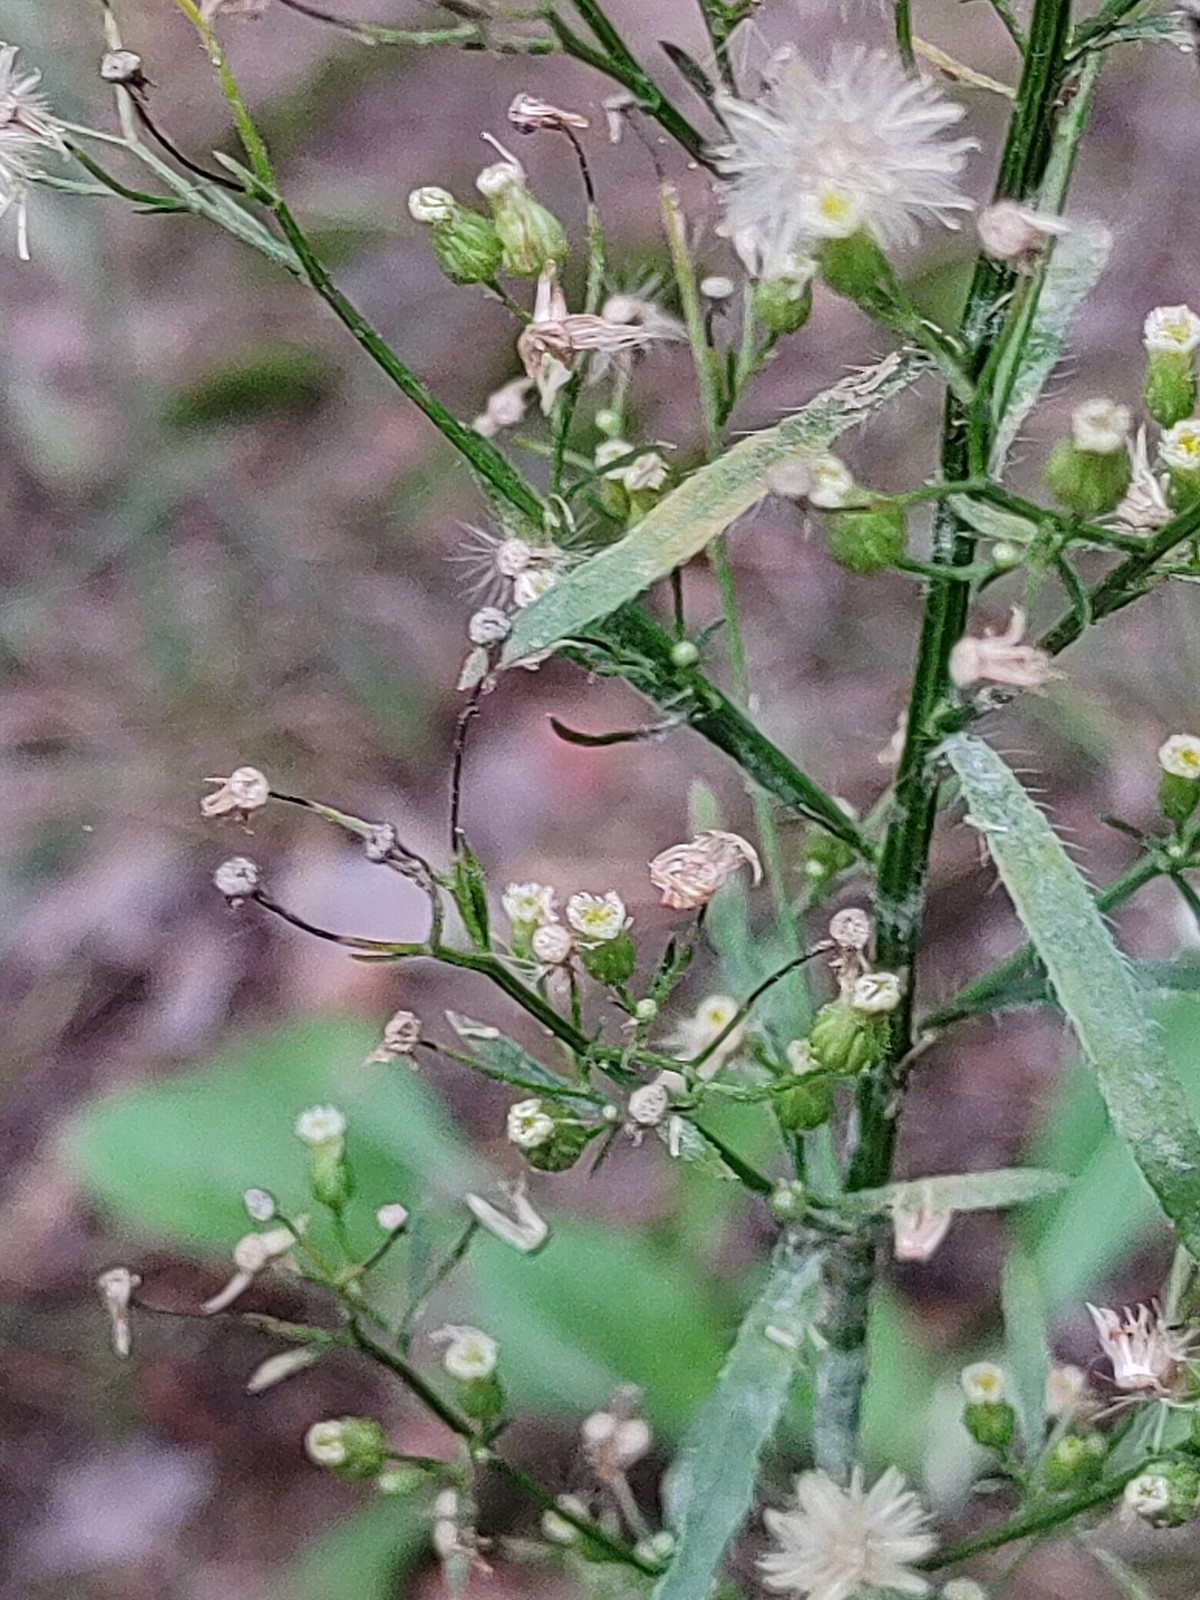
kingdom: Plantae
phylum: Tracheophyta
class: Magnoliopsida
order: Asterales
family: Asteraceae
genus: Erigeron
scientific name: Erigeron canadensis
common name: Canadian fleabane
